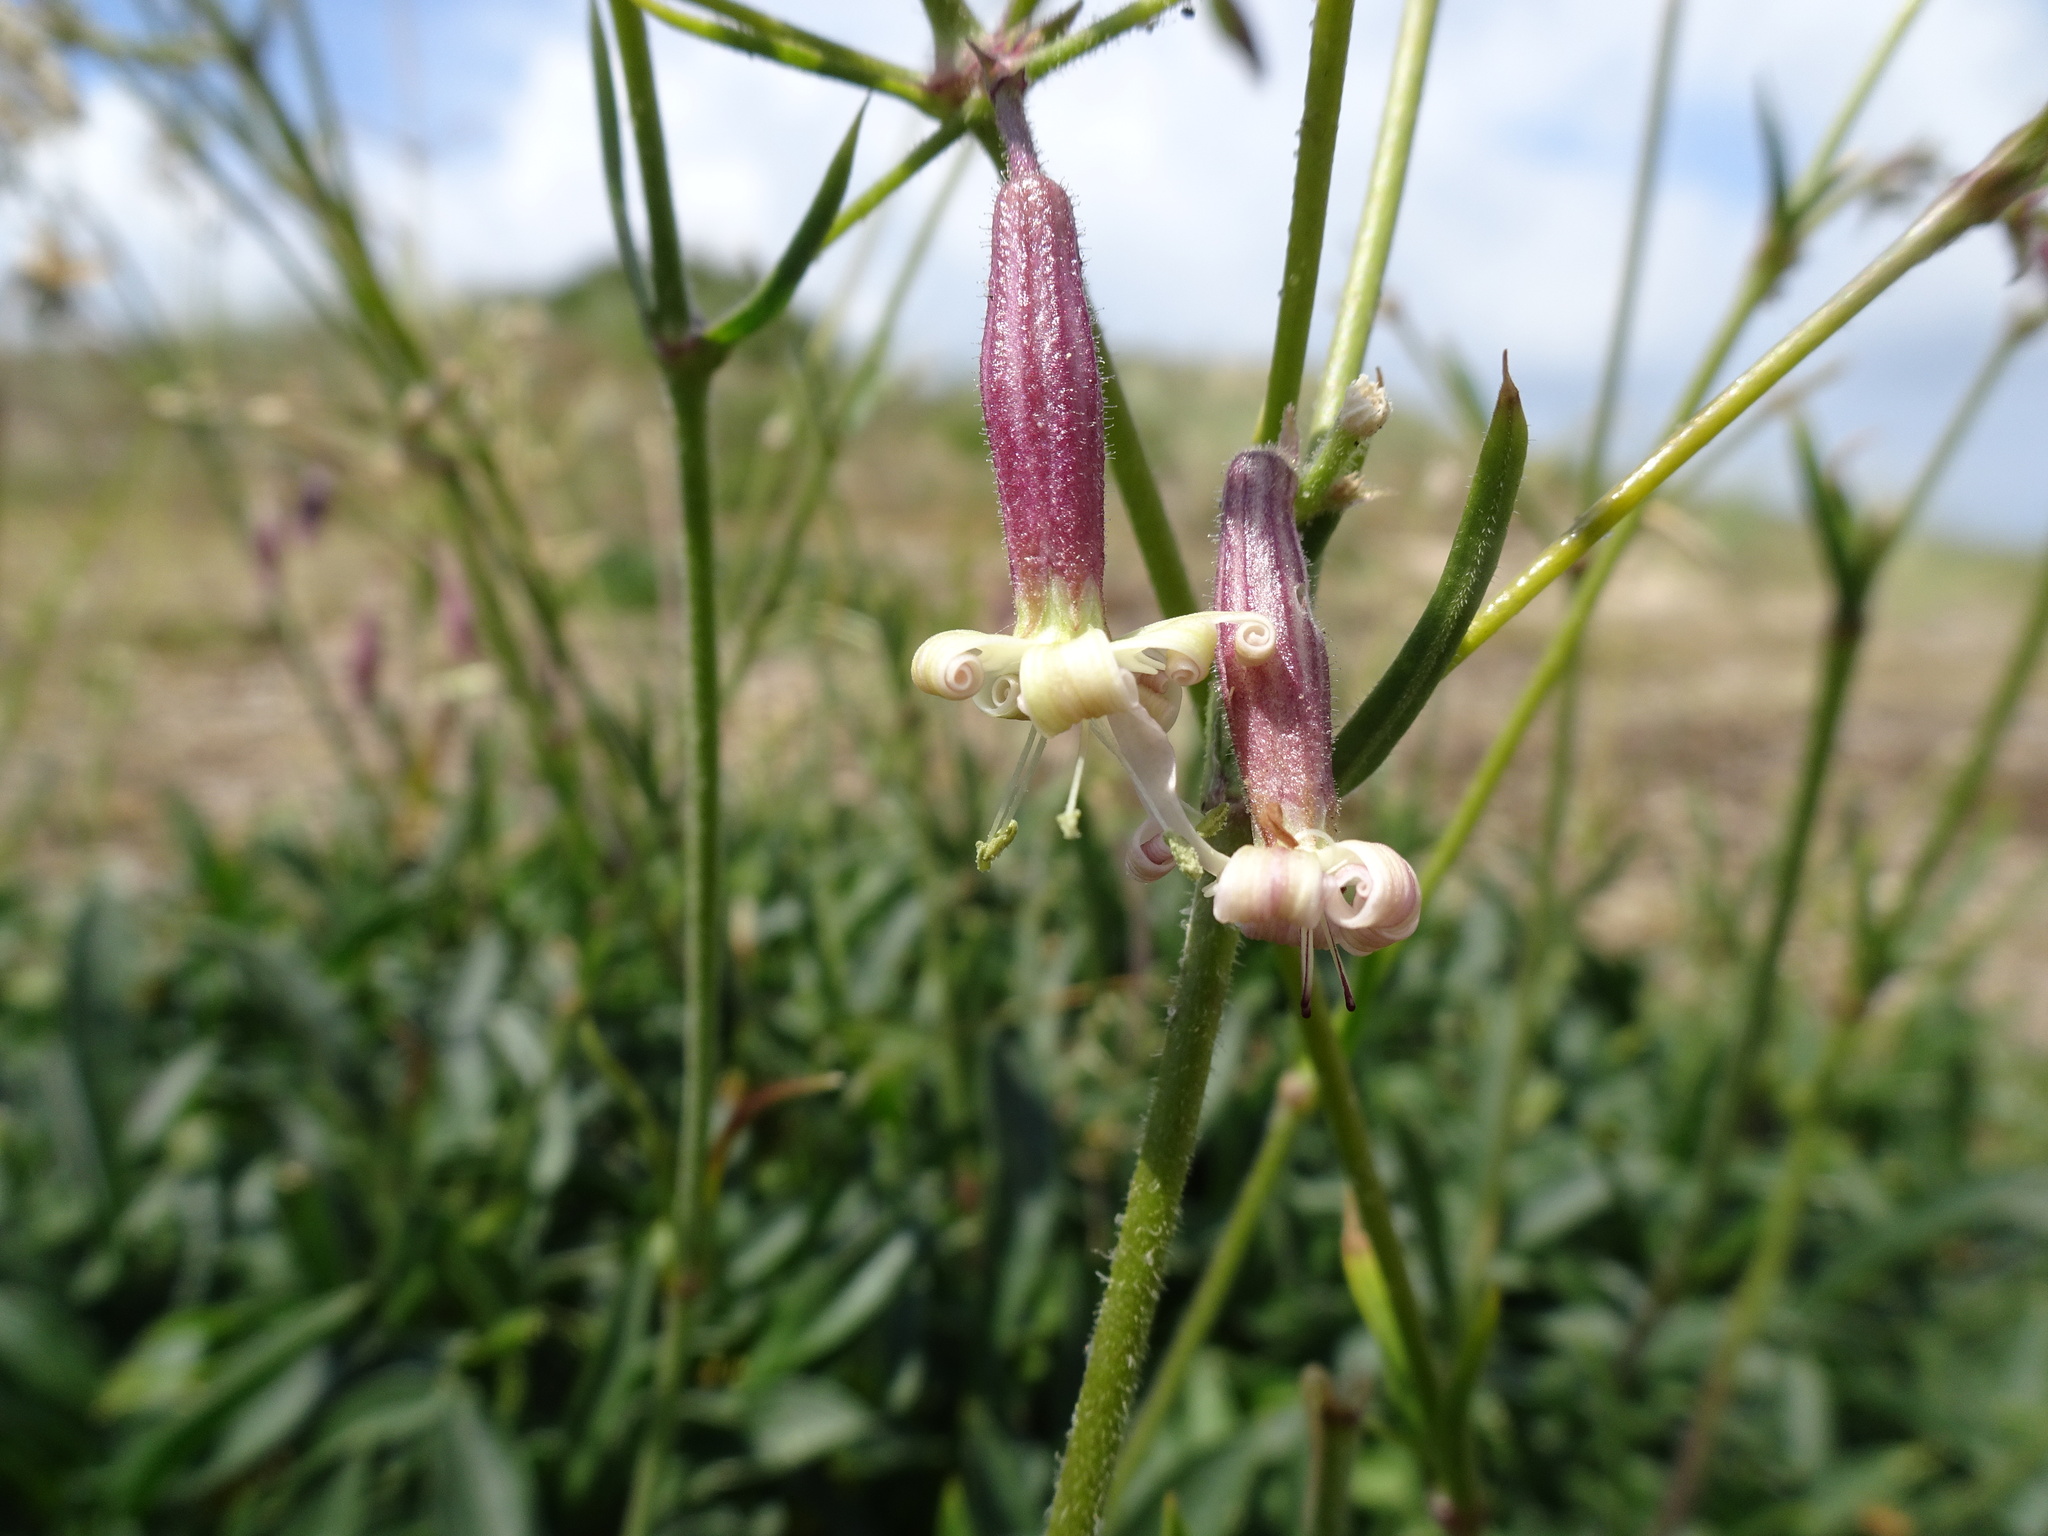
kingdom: Plantae
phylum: Tracheophyta
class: Magnoliopsida
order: Caryophyllales
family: Caryophyllaceae
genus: Silene
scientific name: Silene nutans
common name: Nottingham catchfly
